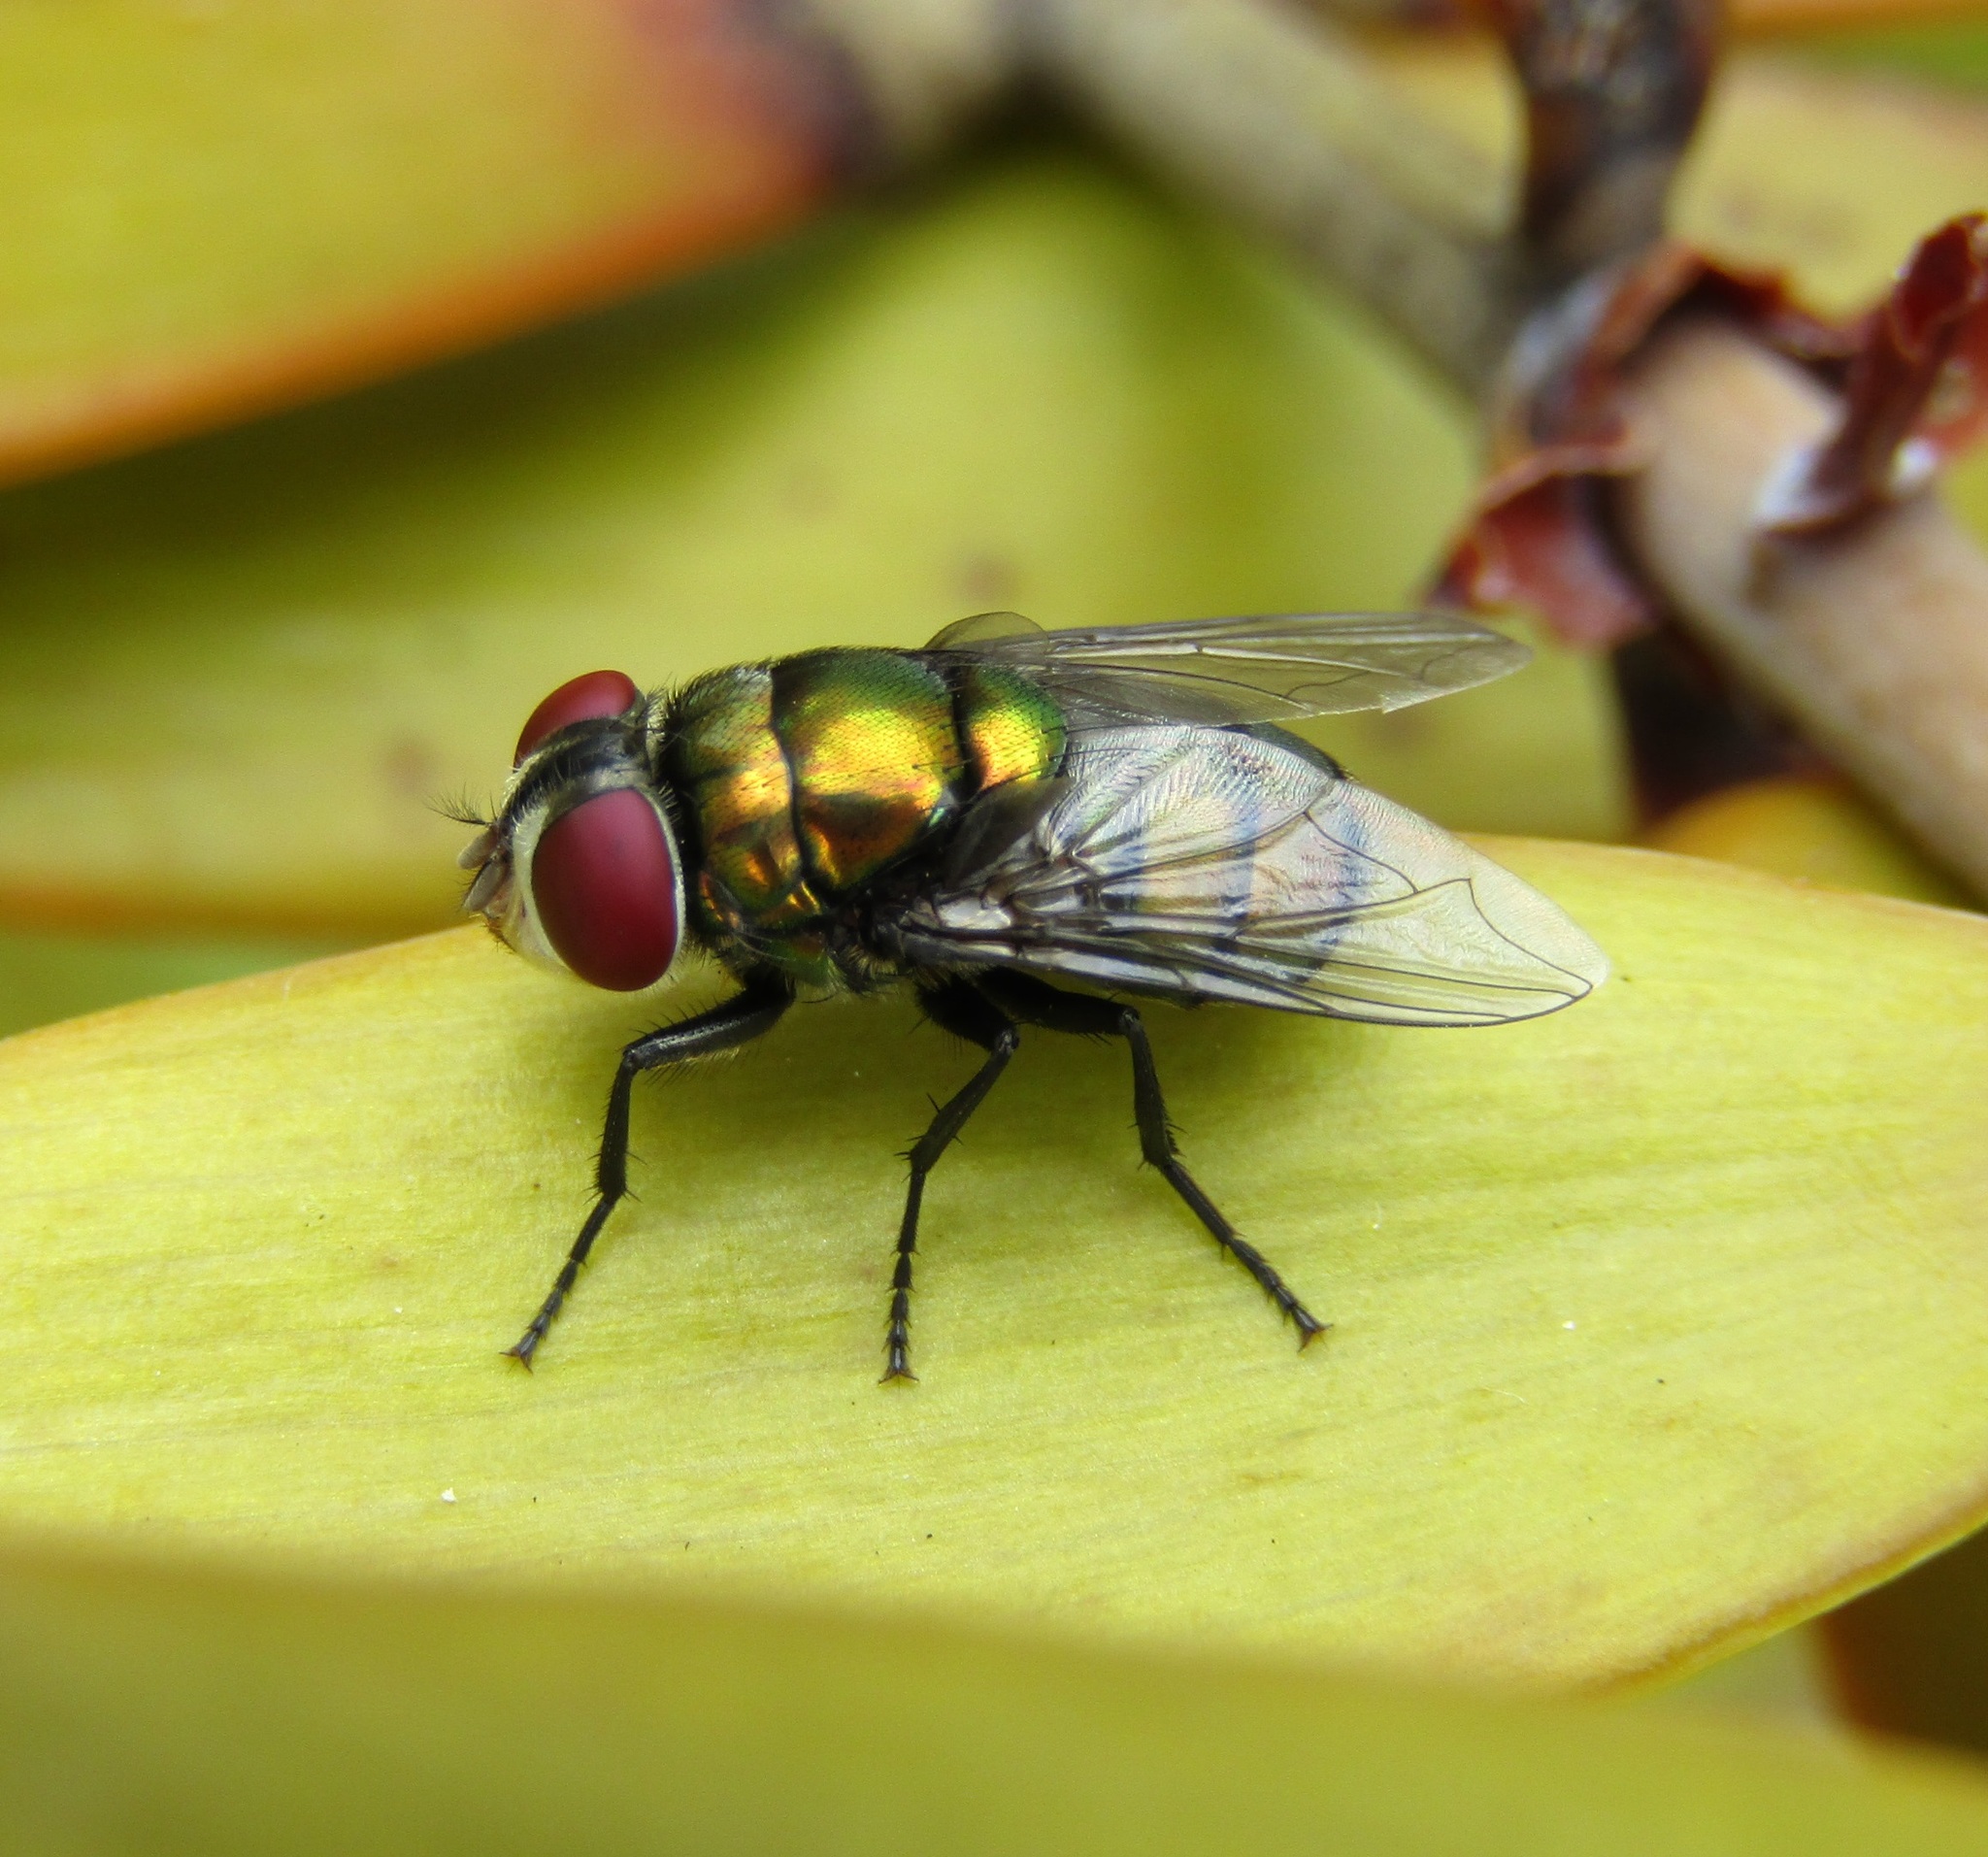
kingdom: Animalia
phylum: Arthropoda
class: Insecta
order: Diptera
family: Calliphoridae
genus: Chrysomya
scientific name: Chrysomya rufifacies
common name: Blow fly
